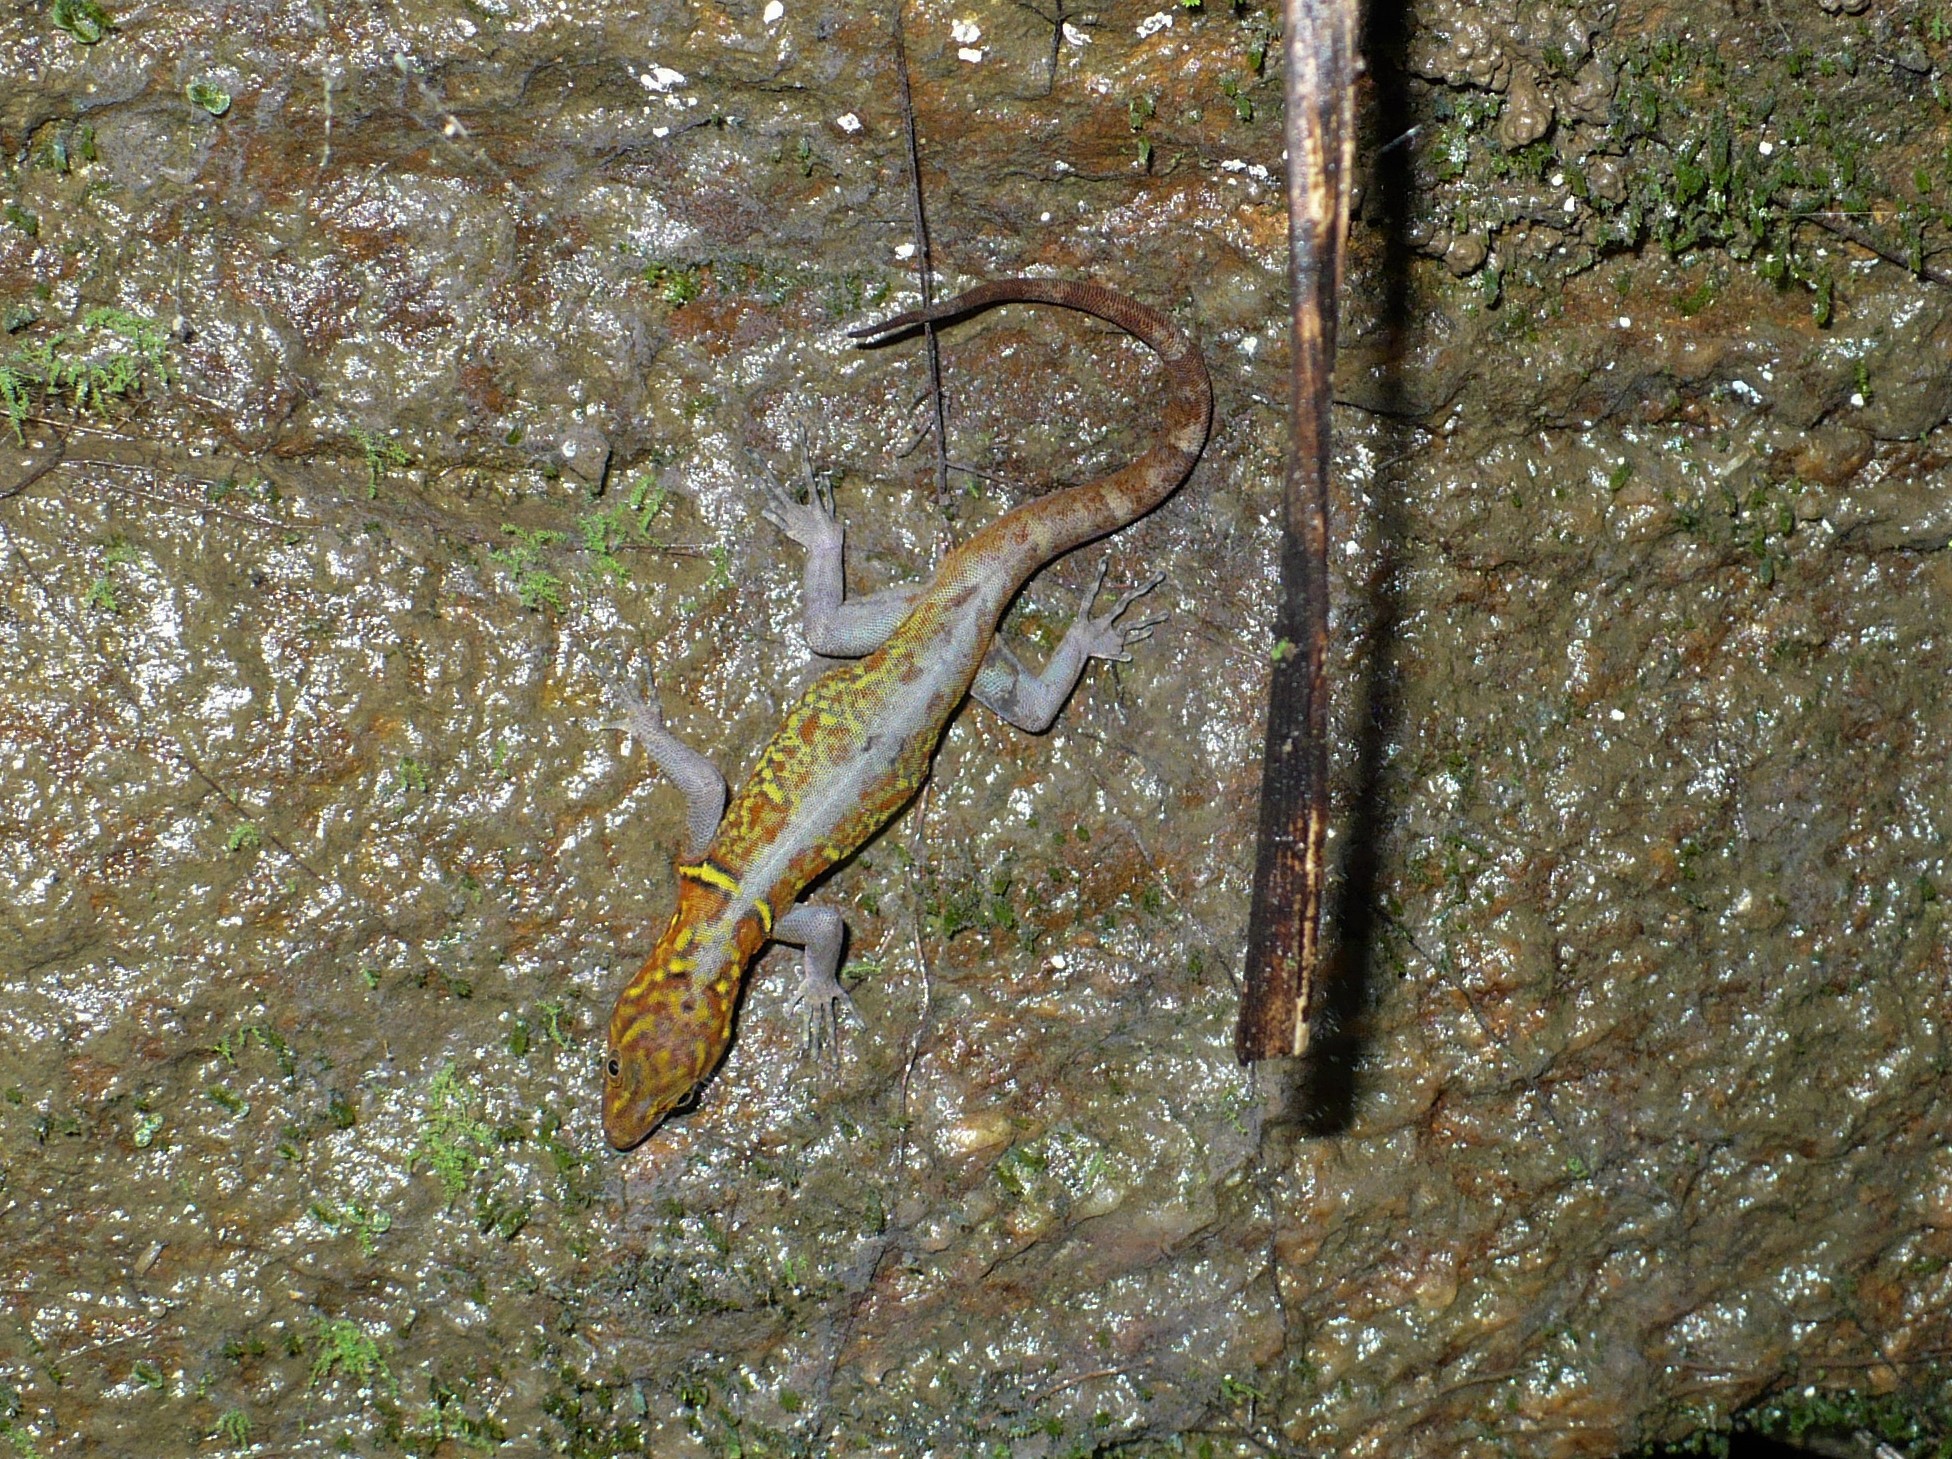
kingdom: Animalia
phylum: Chordata
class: Squamata
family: Sphaerodactylidae
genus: Gonatodes
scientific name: Gonatodes ceciliae
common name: Brilliant south american gecko
